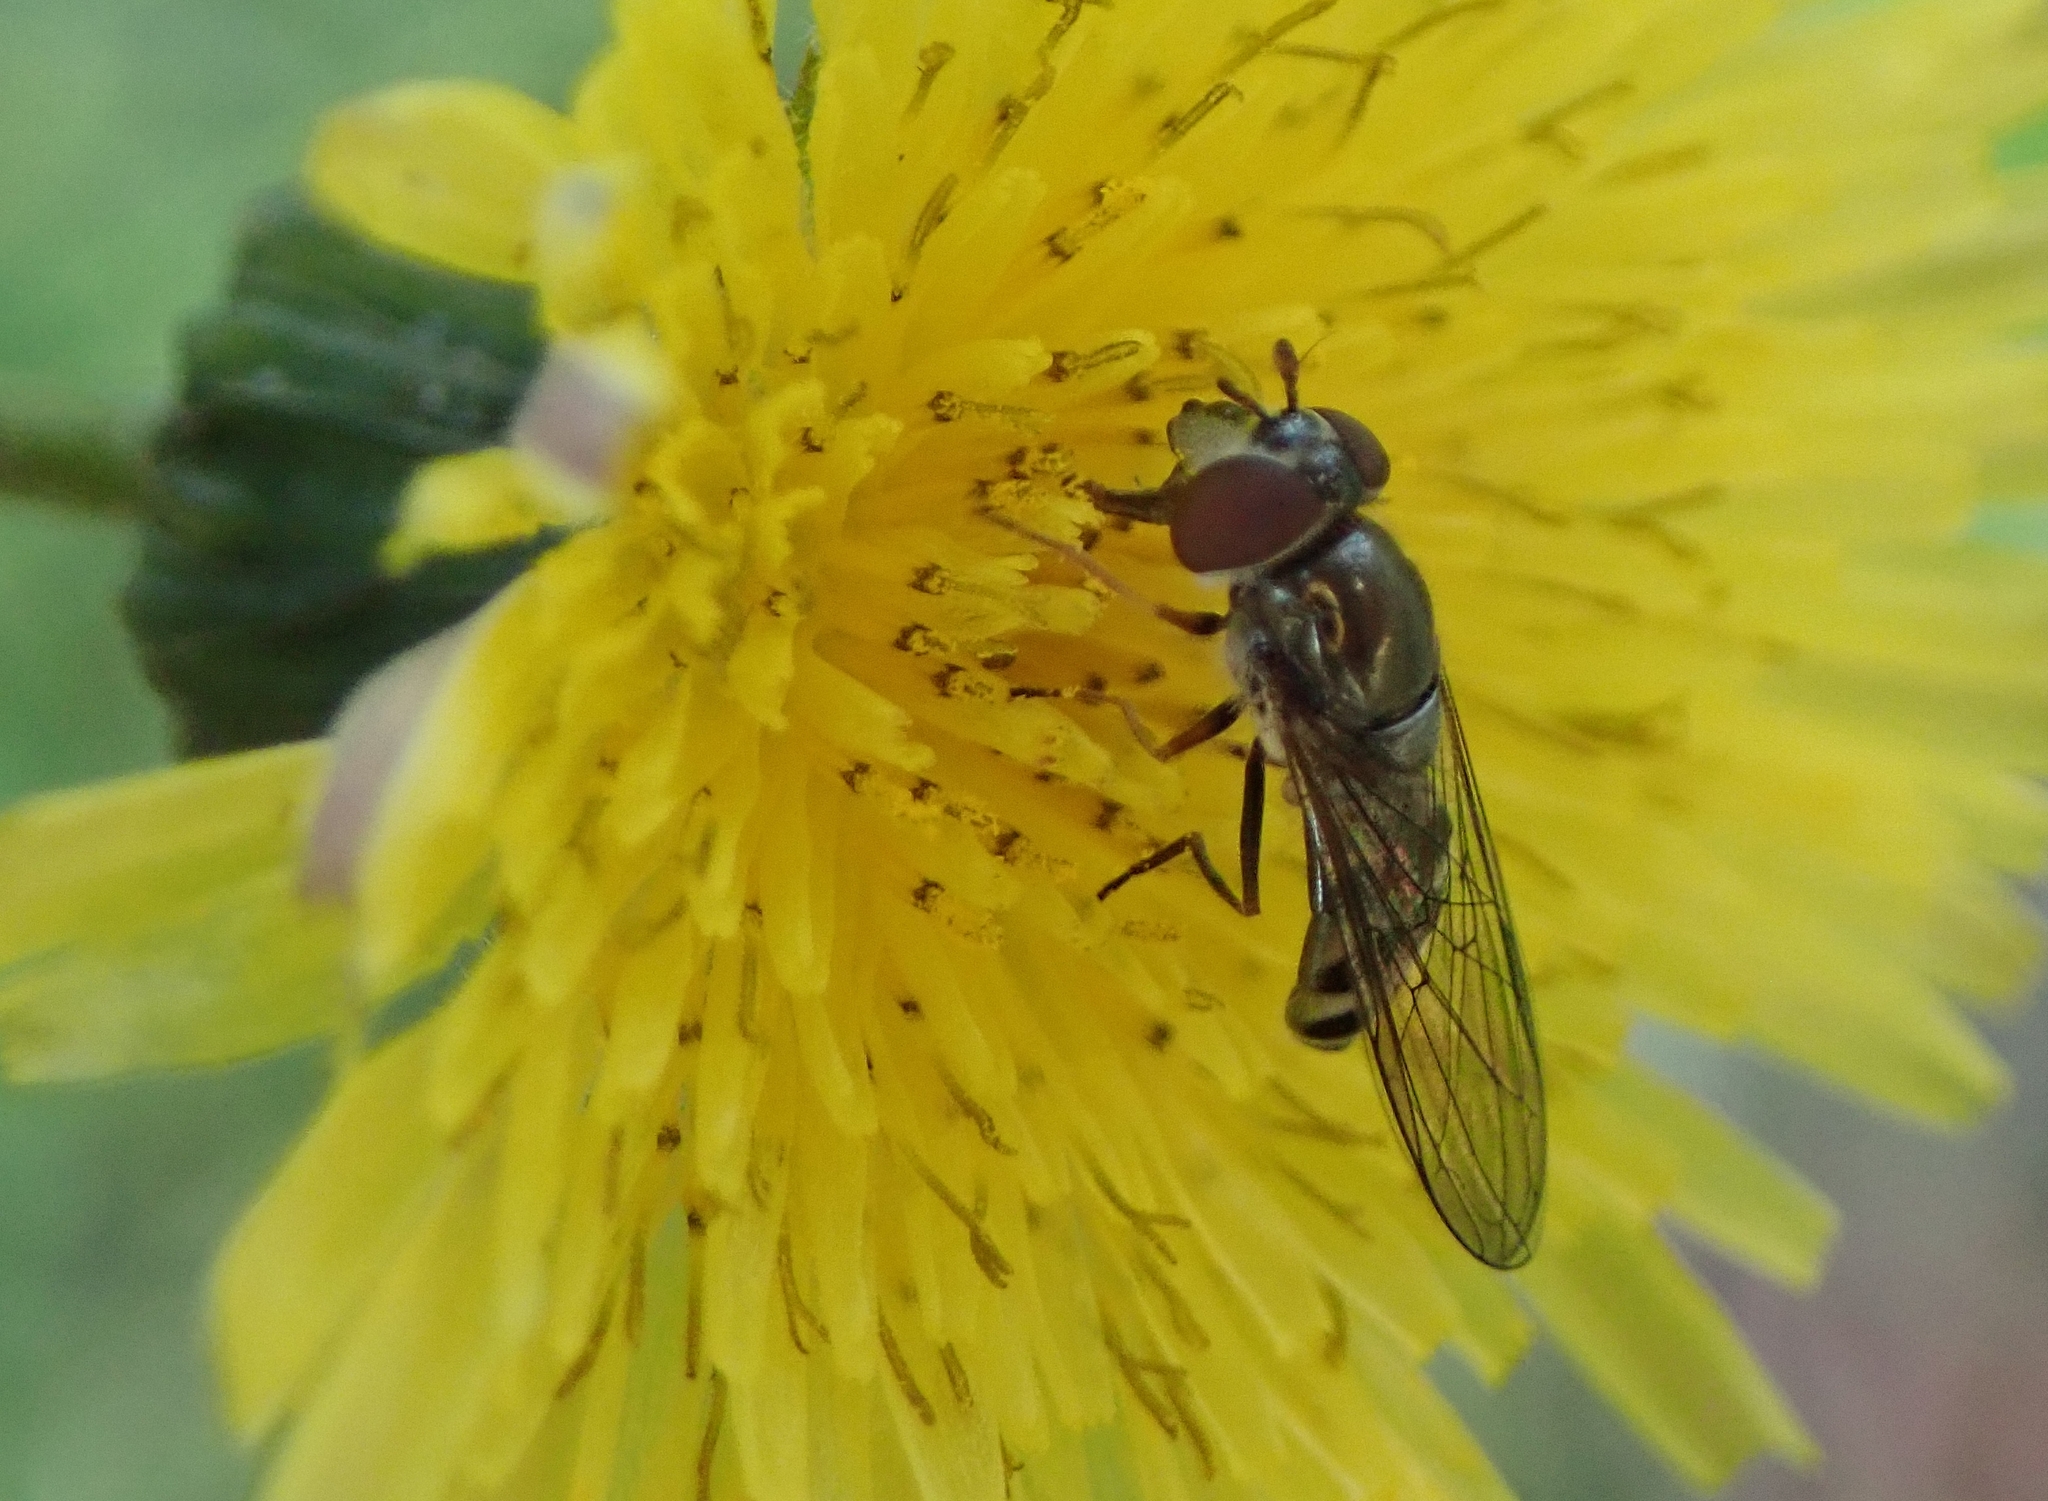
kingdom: Animalia
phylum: Arthropoda
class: Insecta
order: Diptera
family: Syrphidae
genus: Platycheirus
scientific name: Platycheirus trichopus
